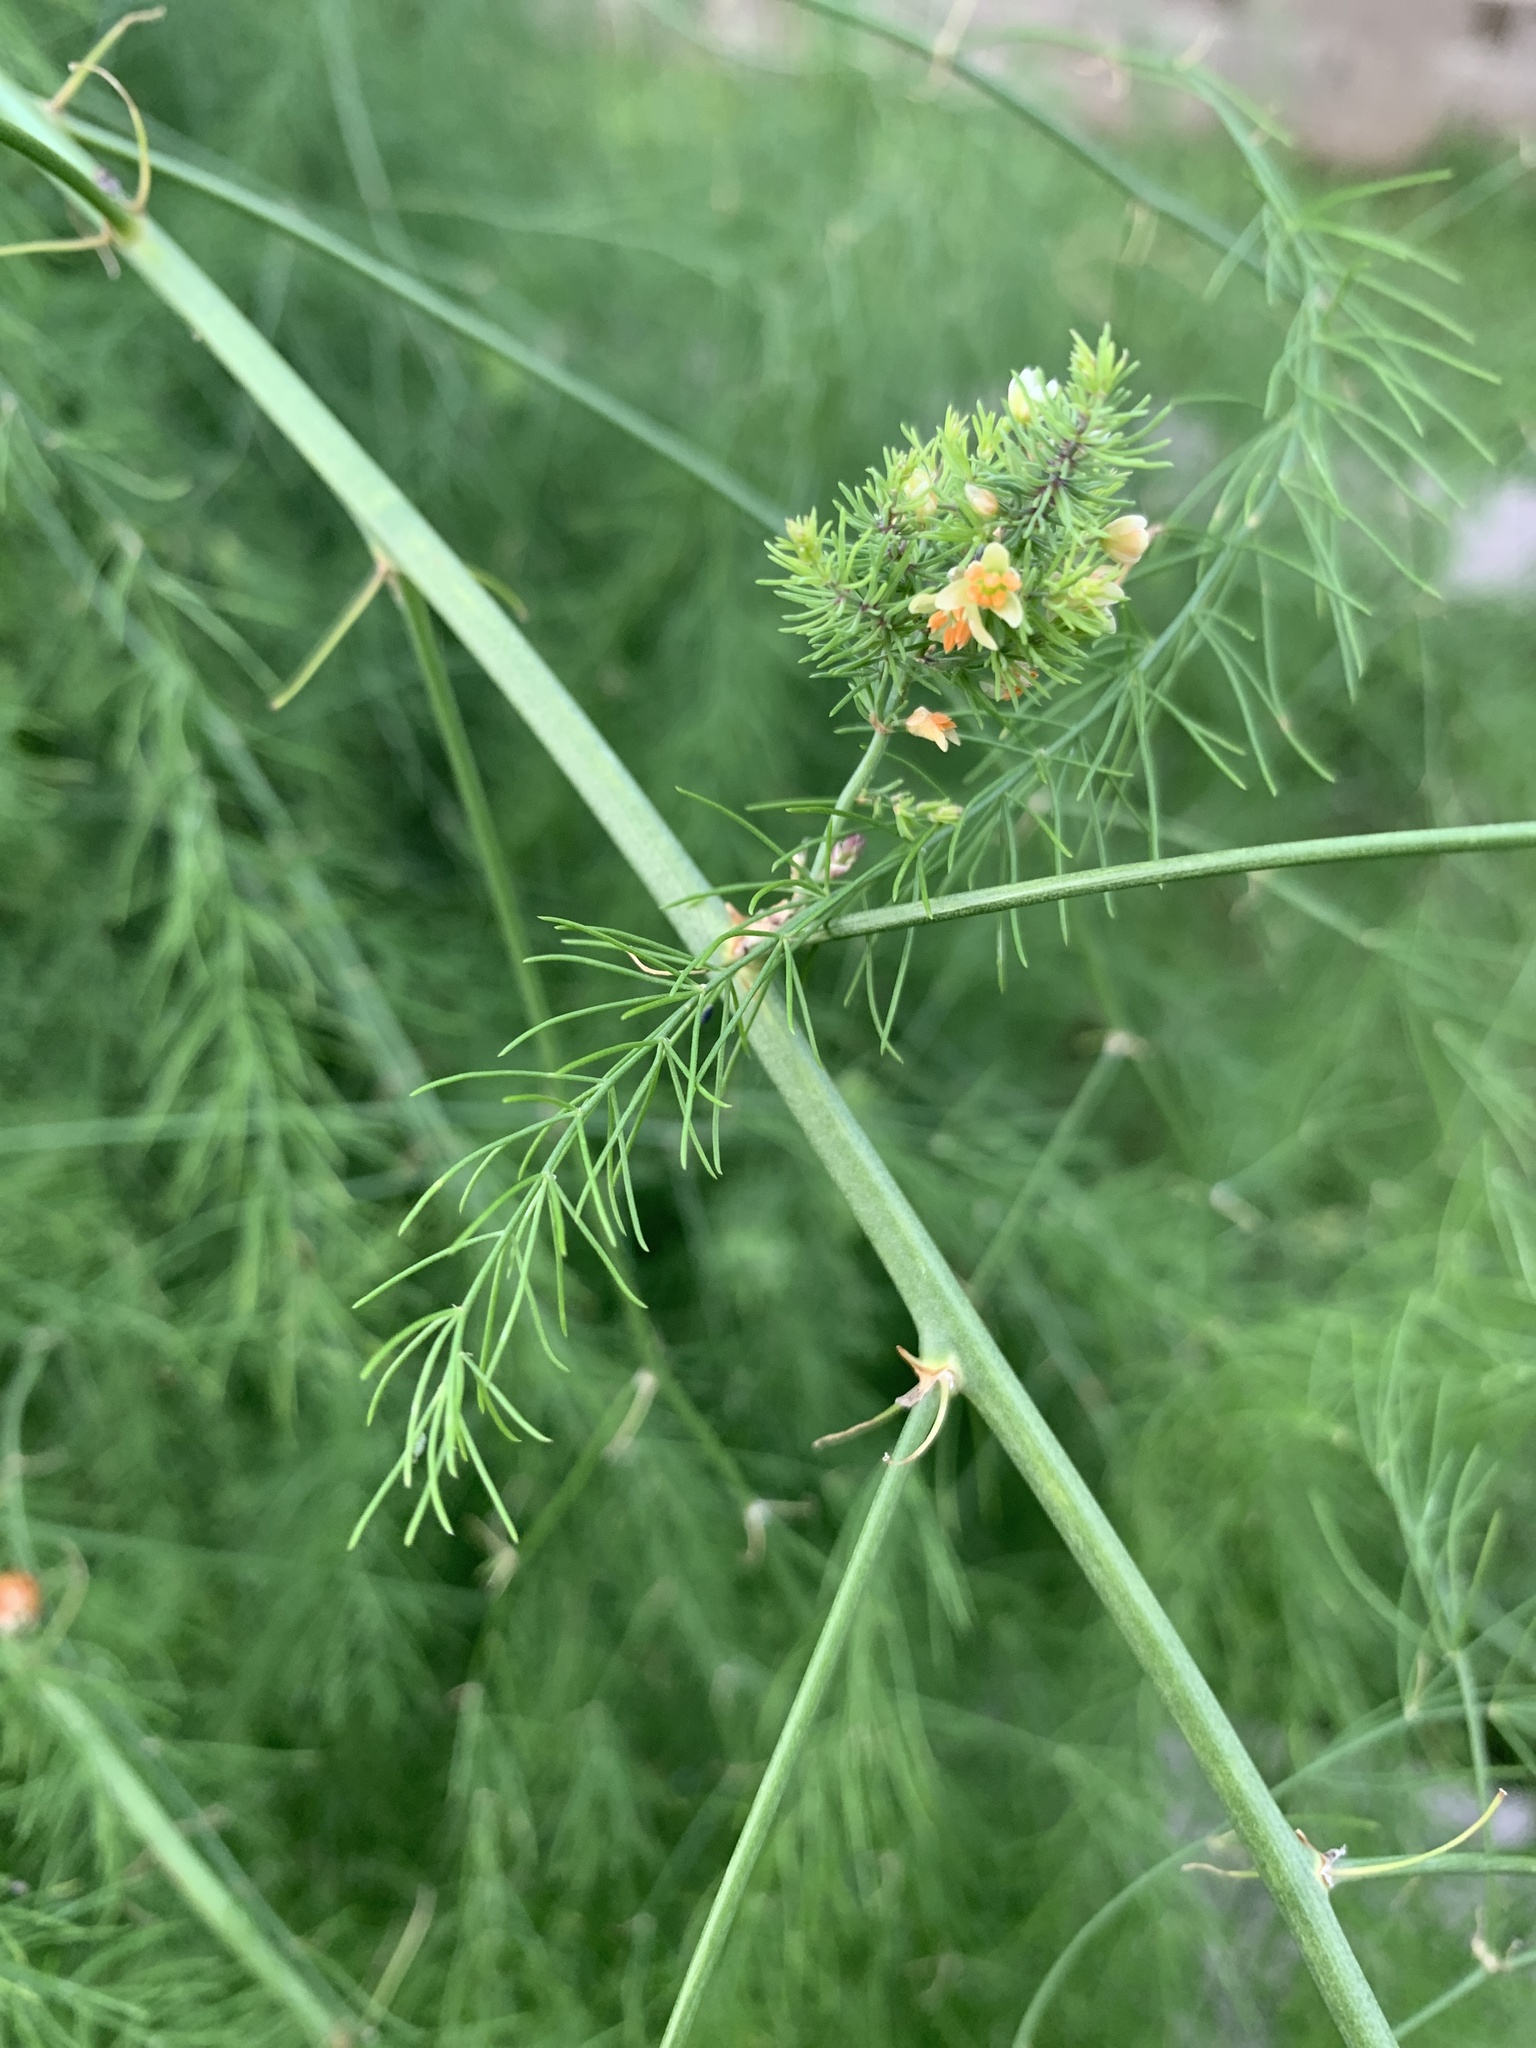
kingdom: Plantae
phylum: Tracheophyta
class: Magnoliopsida
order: Apiales
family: Apiaceae
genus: Foeniculum
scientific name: Foeniculum vulgare
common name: Fennel
